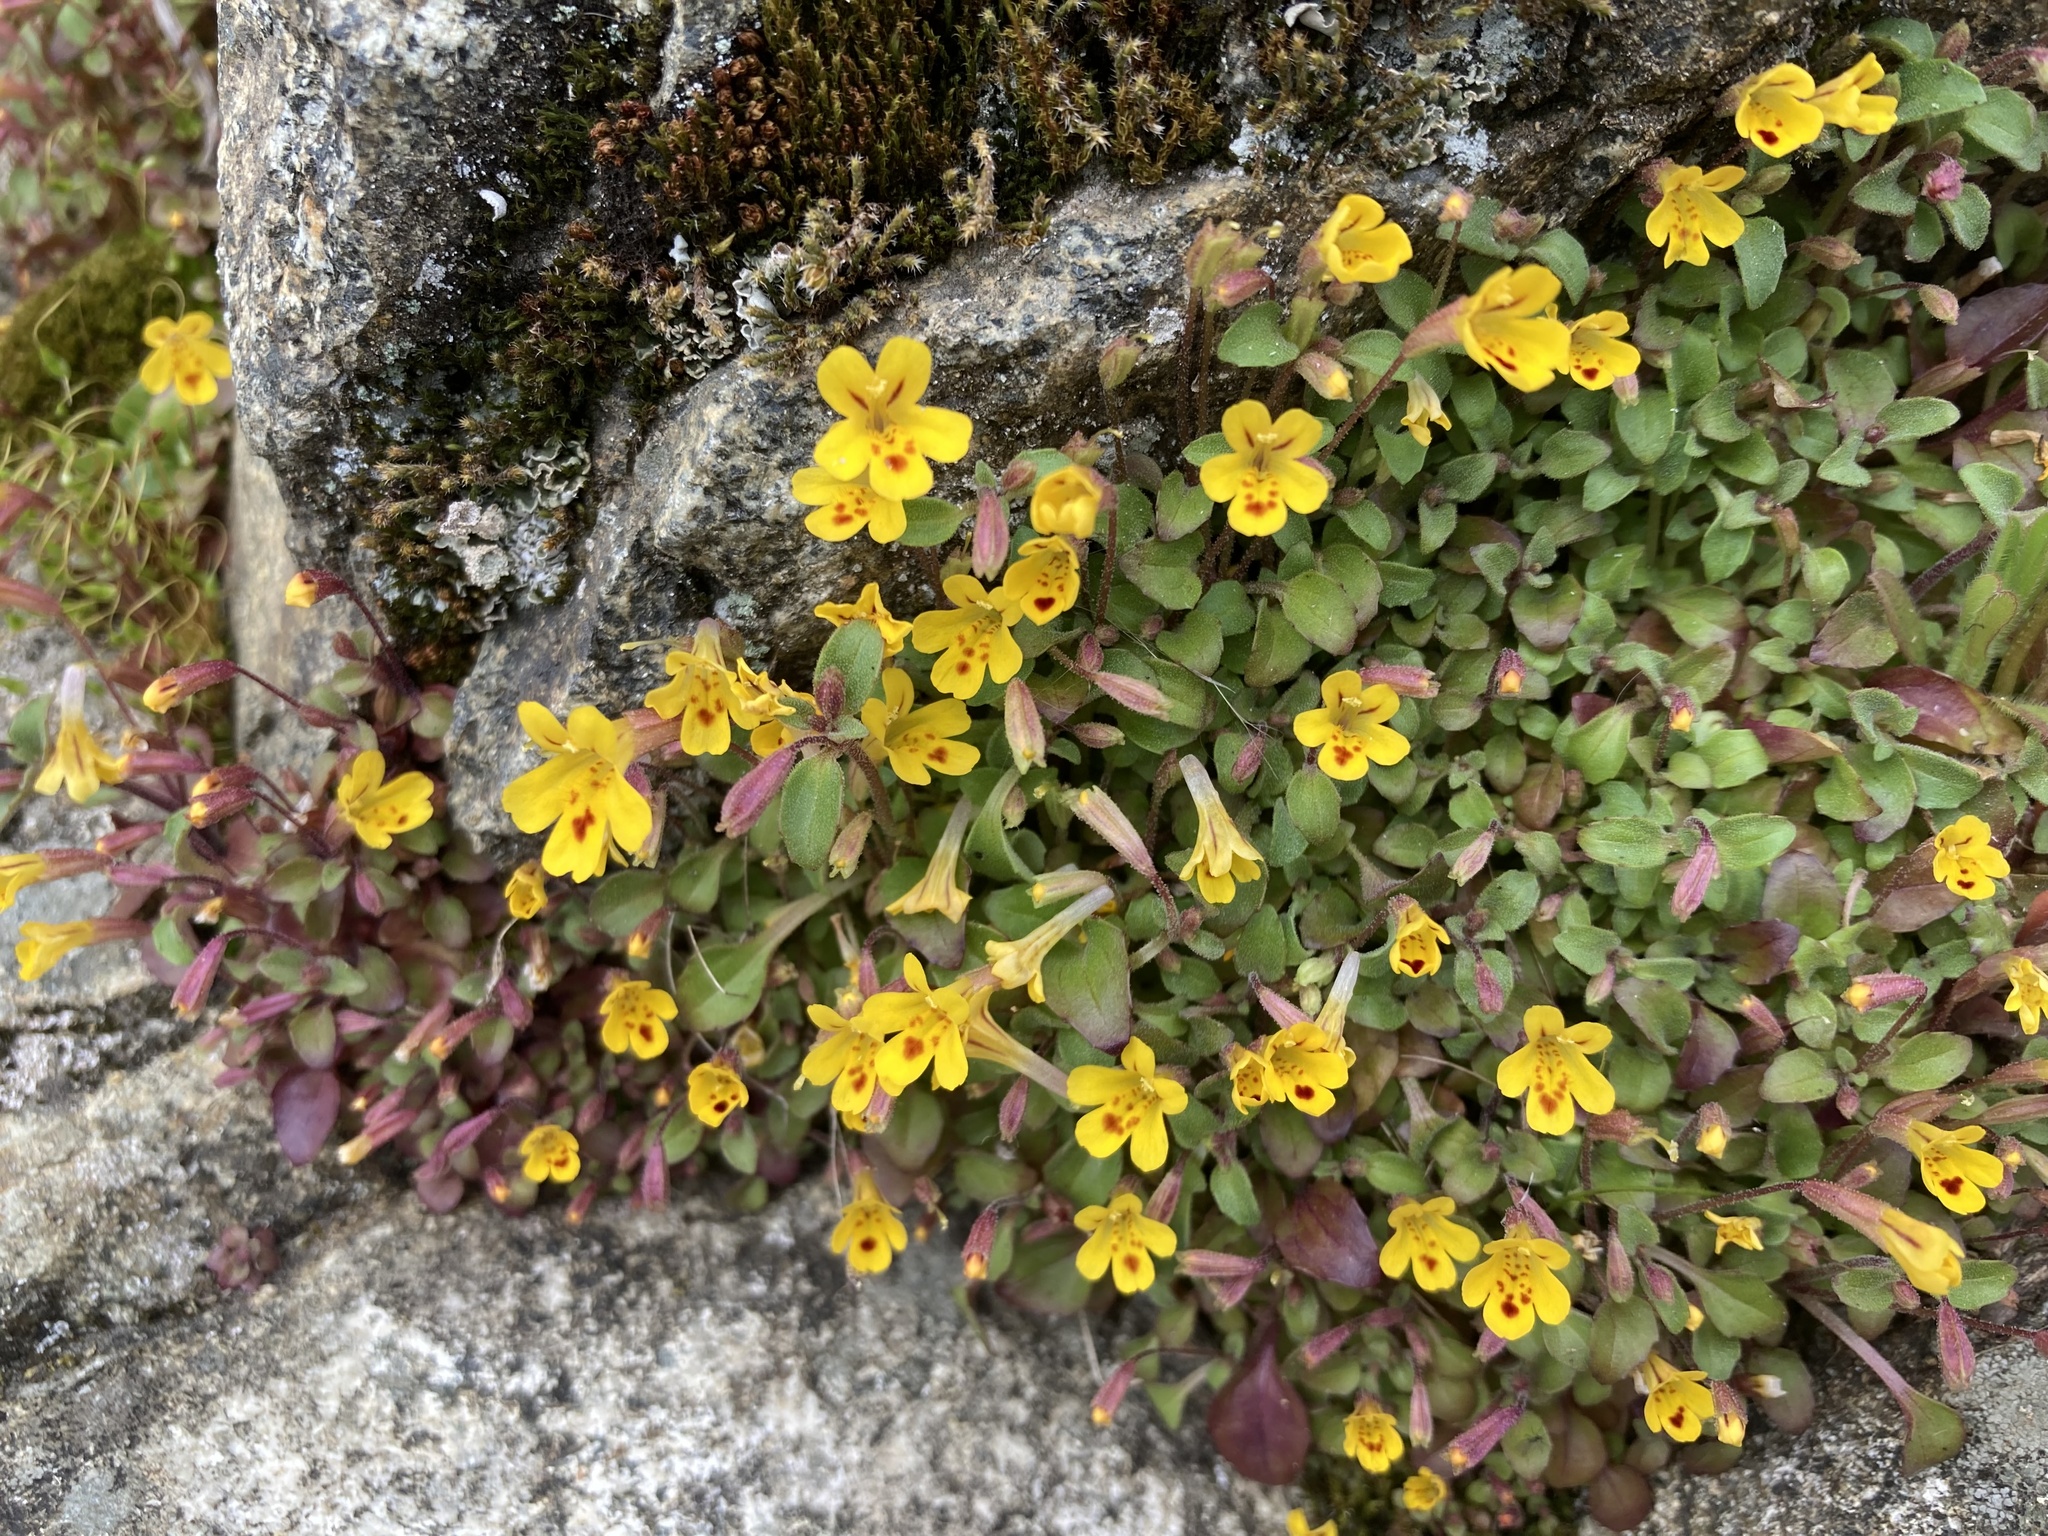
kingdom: Plantae
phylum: Tracheophyta
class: Magnoliopsida
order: Lamiales
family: Phrymaceae
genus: Erythranthe
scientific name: Erythranthe alsinoides
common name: Chickweed monkeyflower
